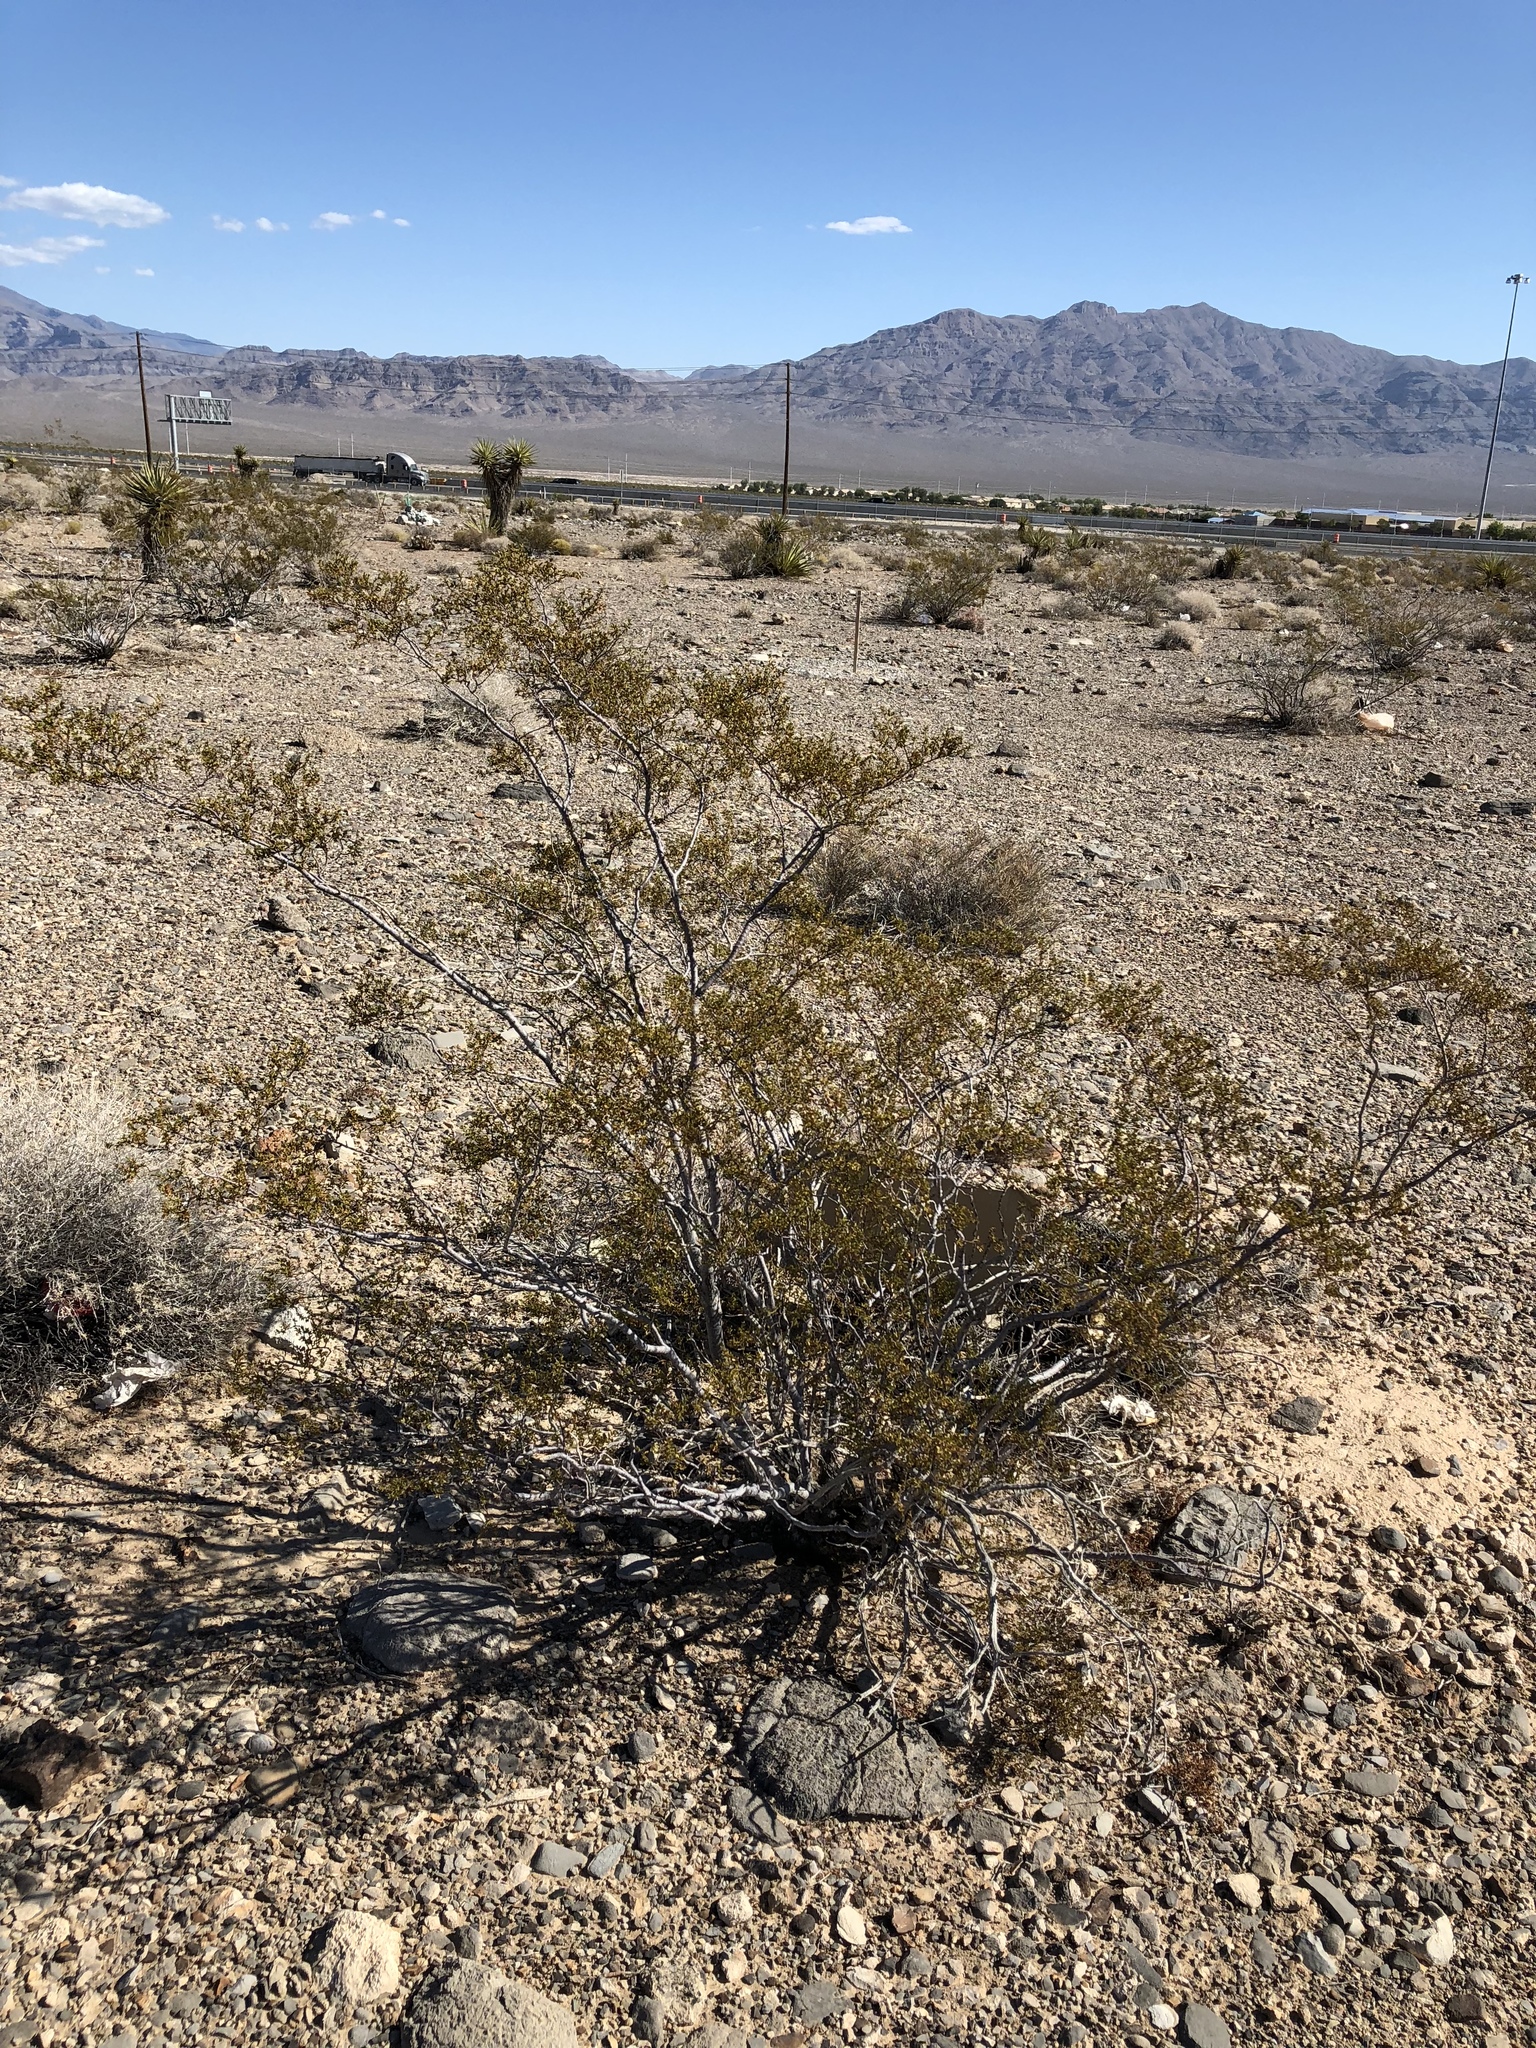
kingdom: Plantae
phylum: Tracheophyta
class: Magnoliopsida
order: Zygophyllales
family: Zygophyllaceae
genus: Larrea
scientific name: Larrea tridentata
